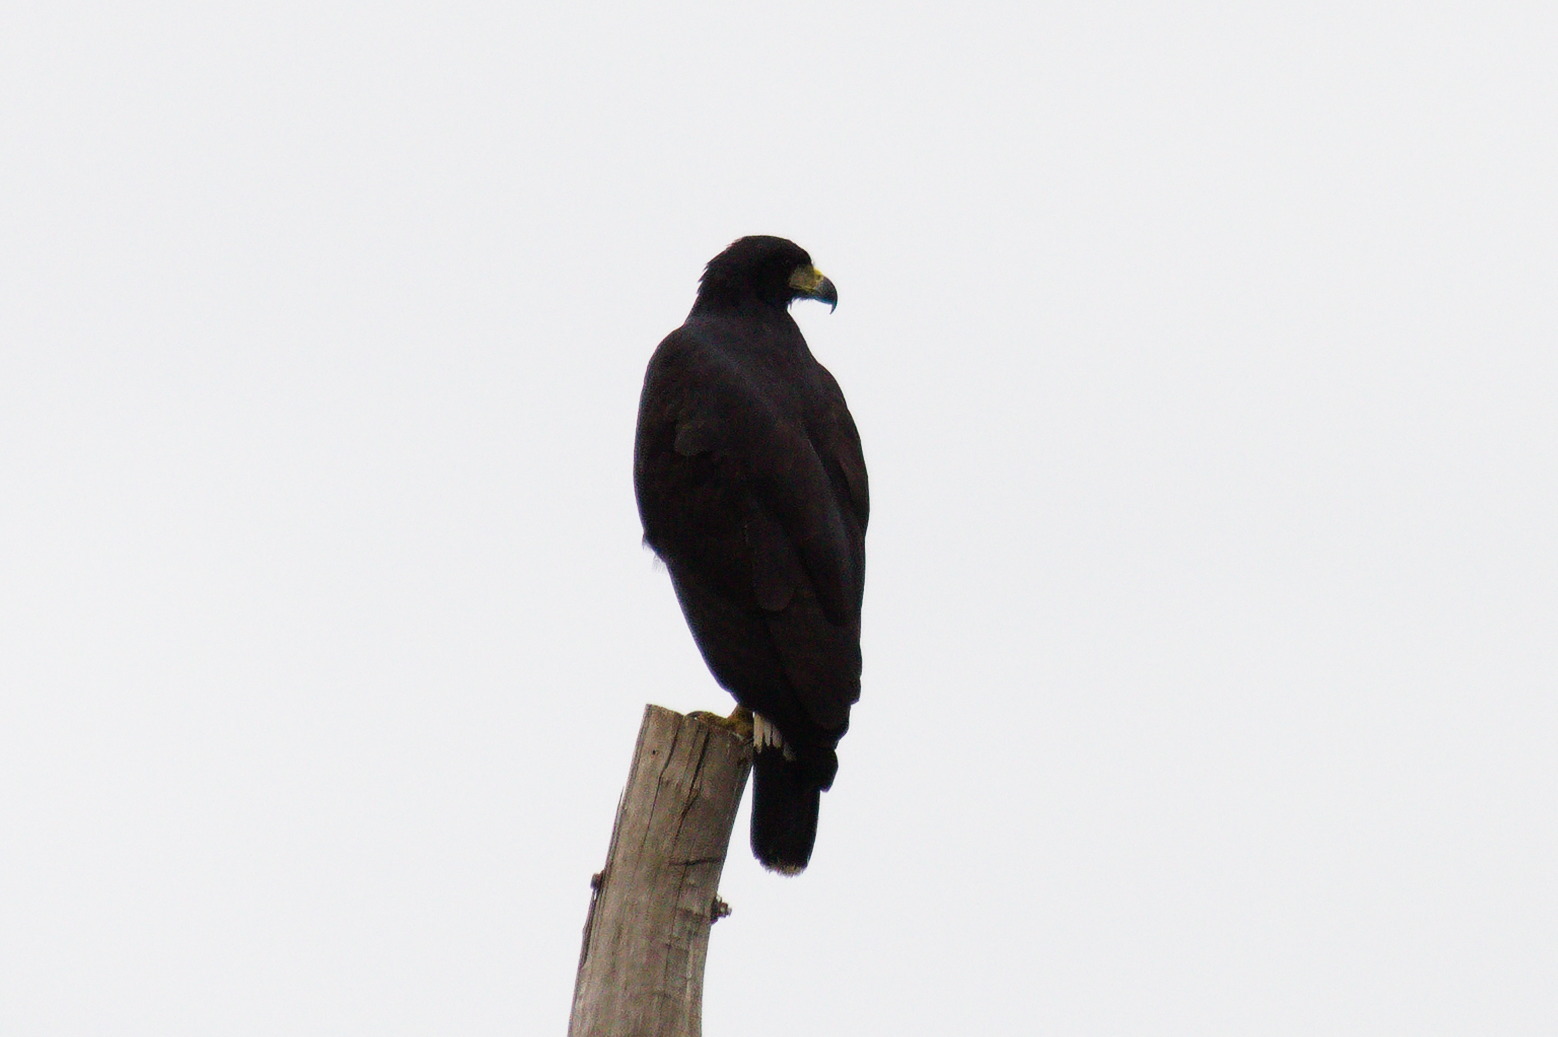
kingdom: Animalia
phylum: Chordata
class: Aves
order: Accipitriformes
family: Accipitridae
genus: Buteogallus
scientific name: Buteogallus urubitinga
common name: Great black hawk
